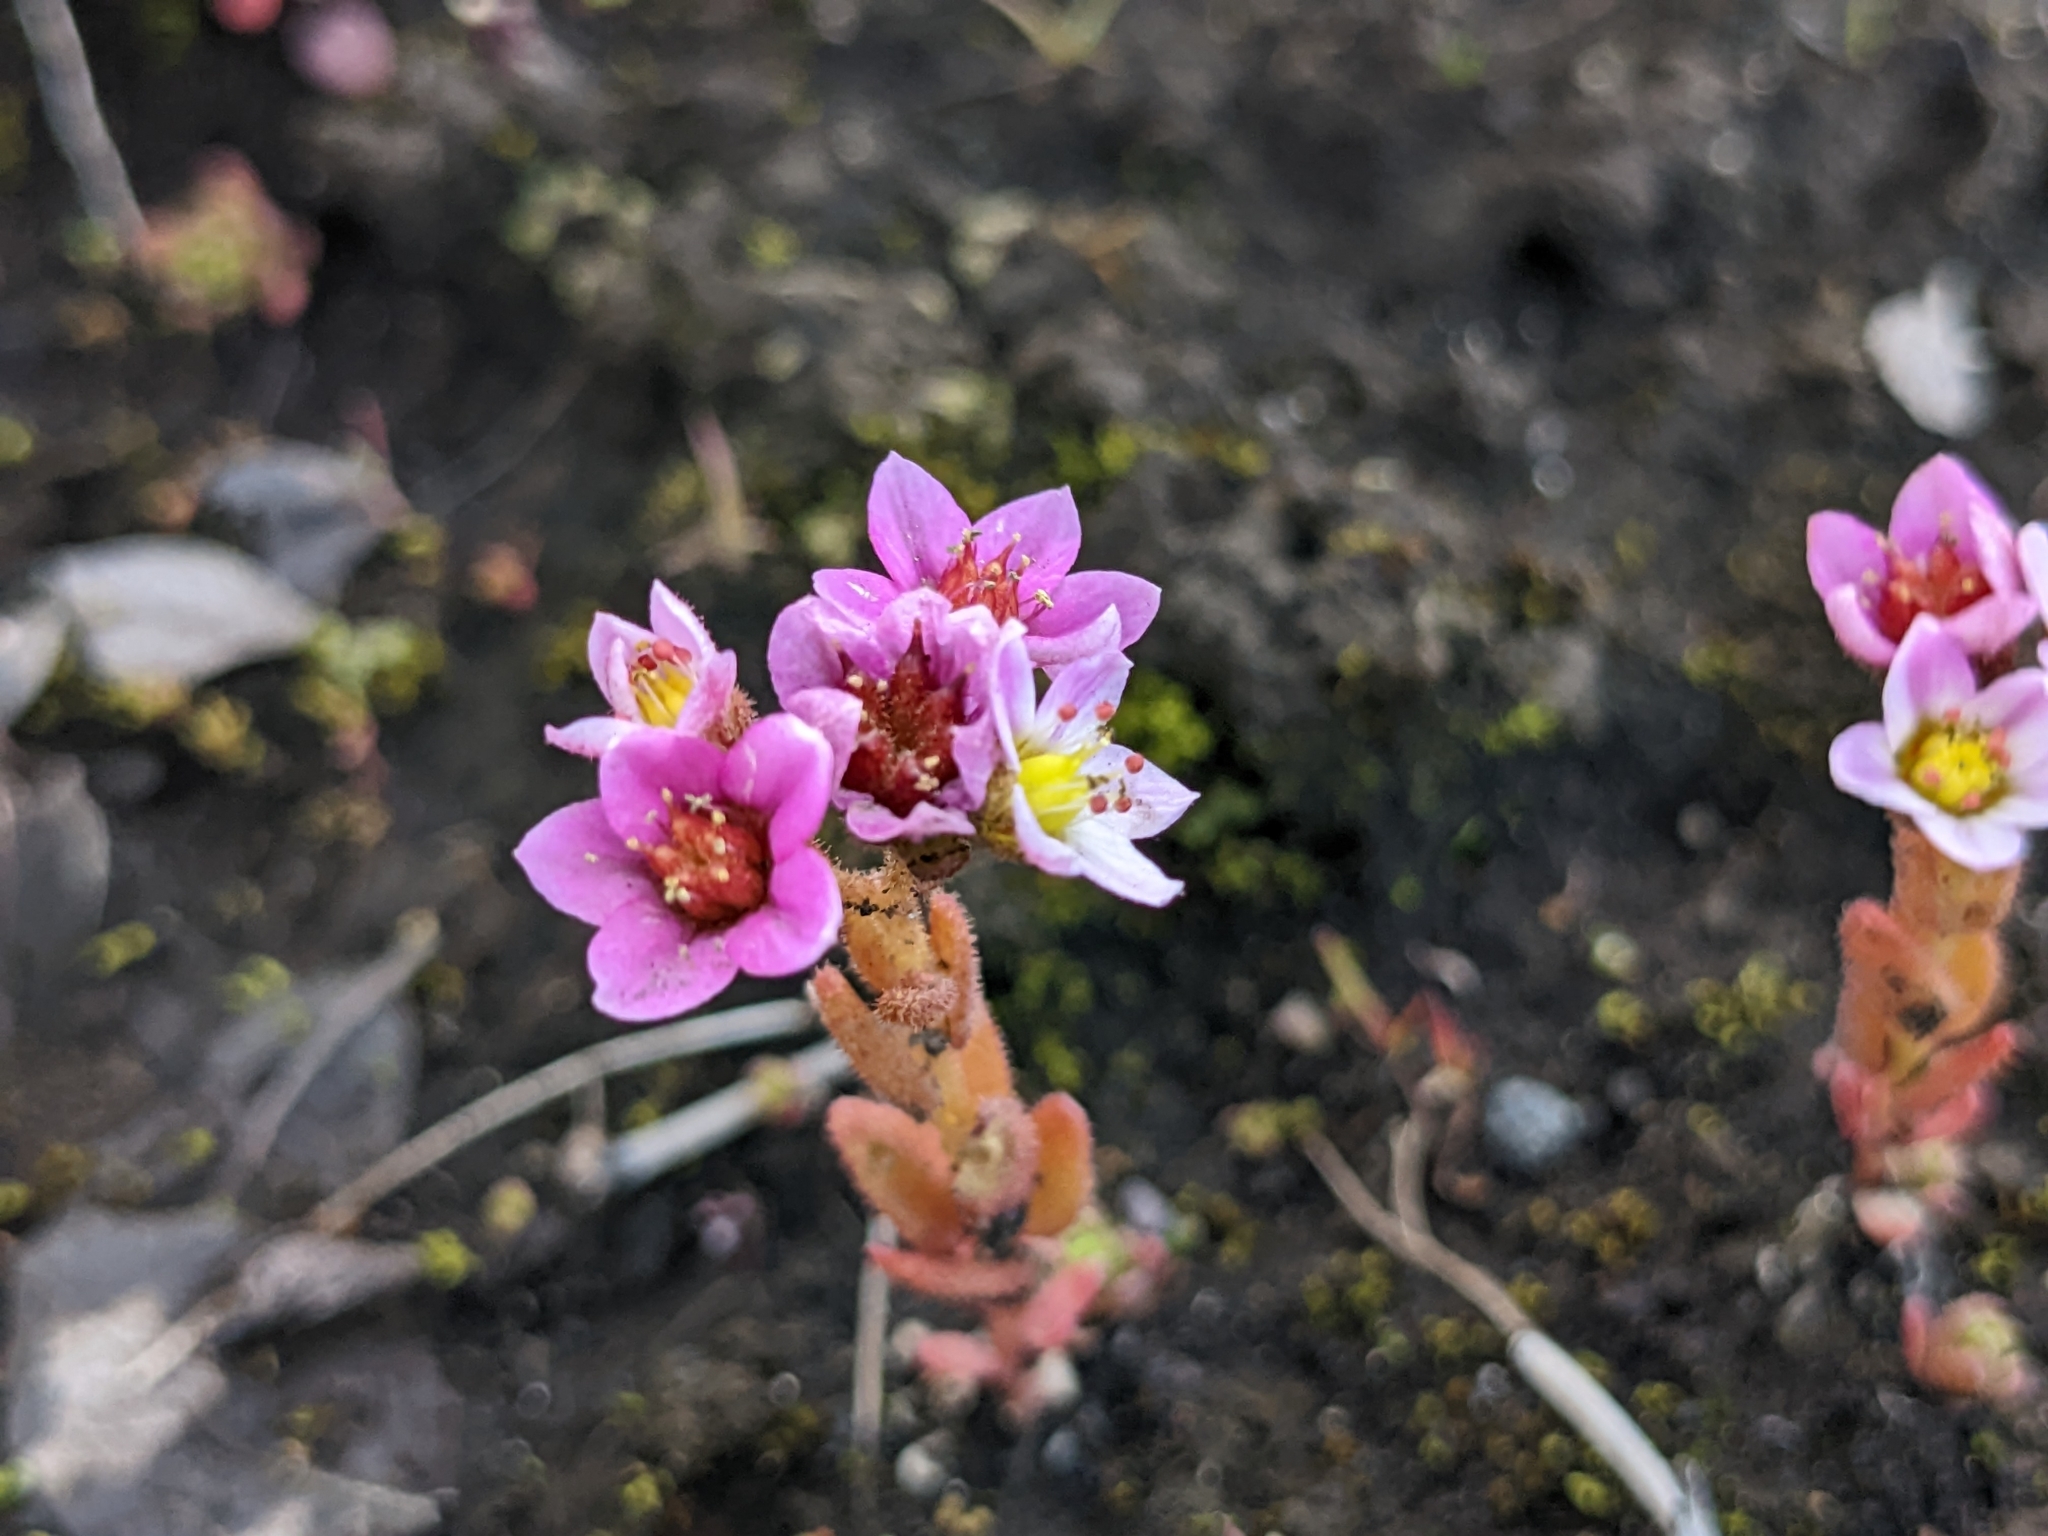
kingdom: Plantae
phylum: Tracheophyta
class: Magnoliopsida
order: Saxifragales
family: Crassulaceae
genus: Sedum
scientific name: Sedum villosum
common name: Hairy stonecrop
